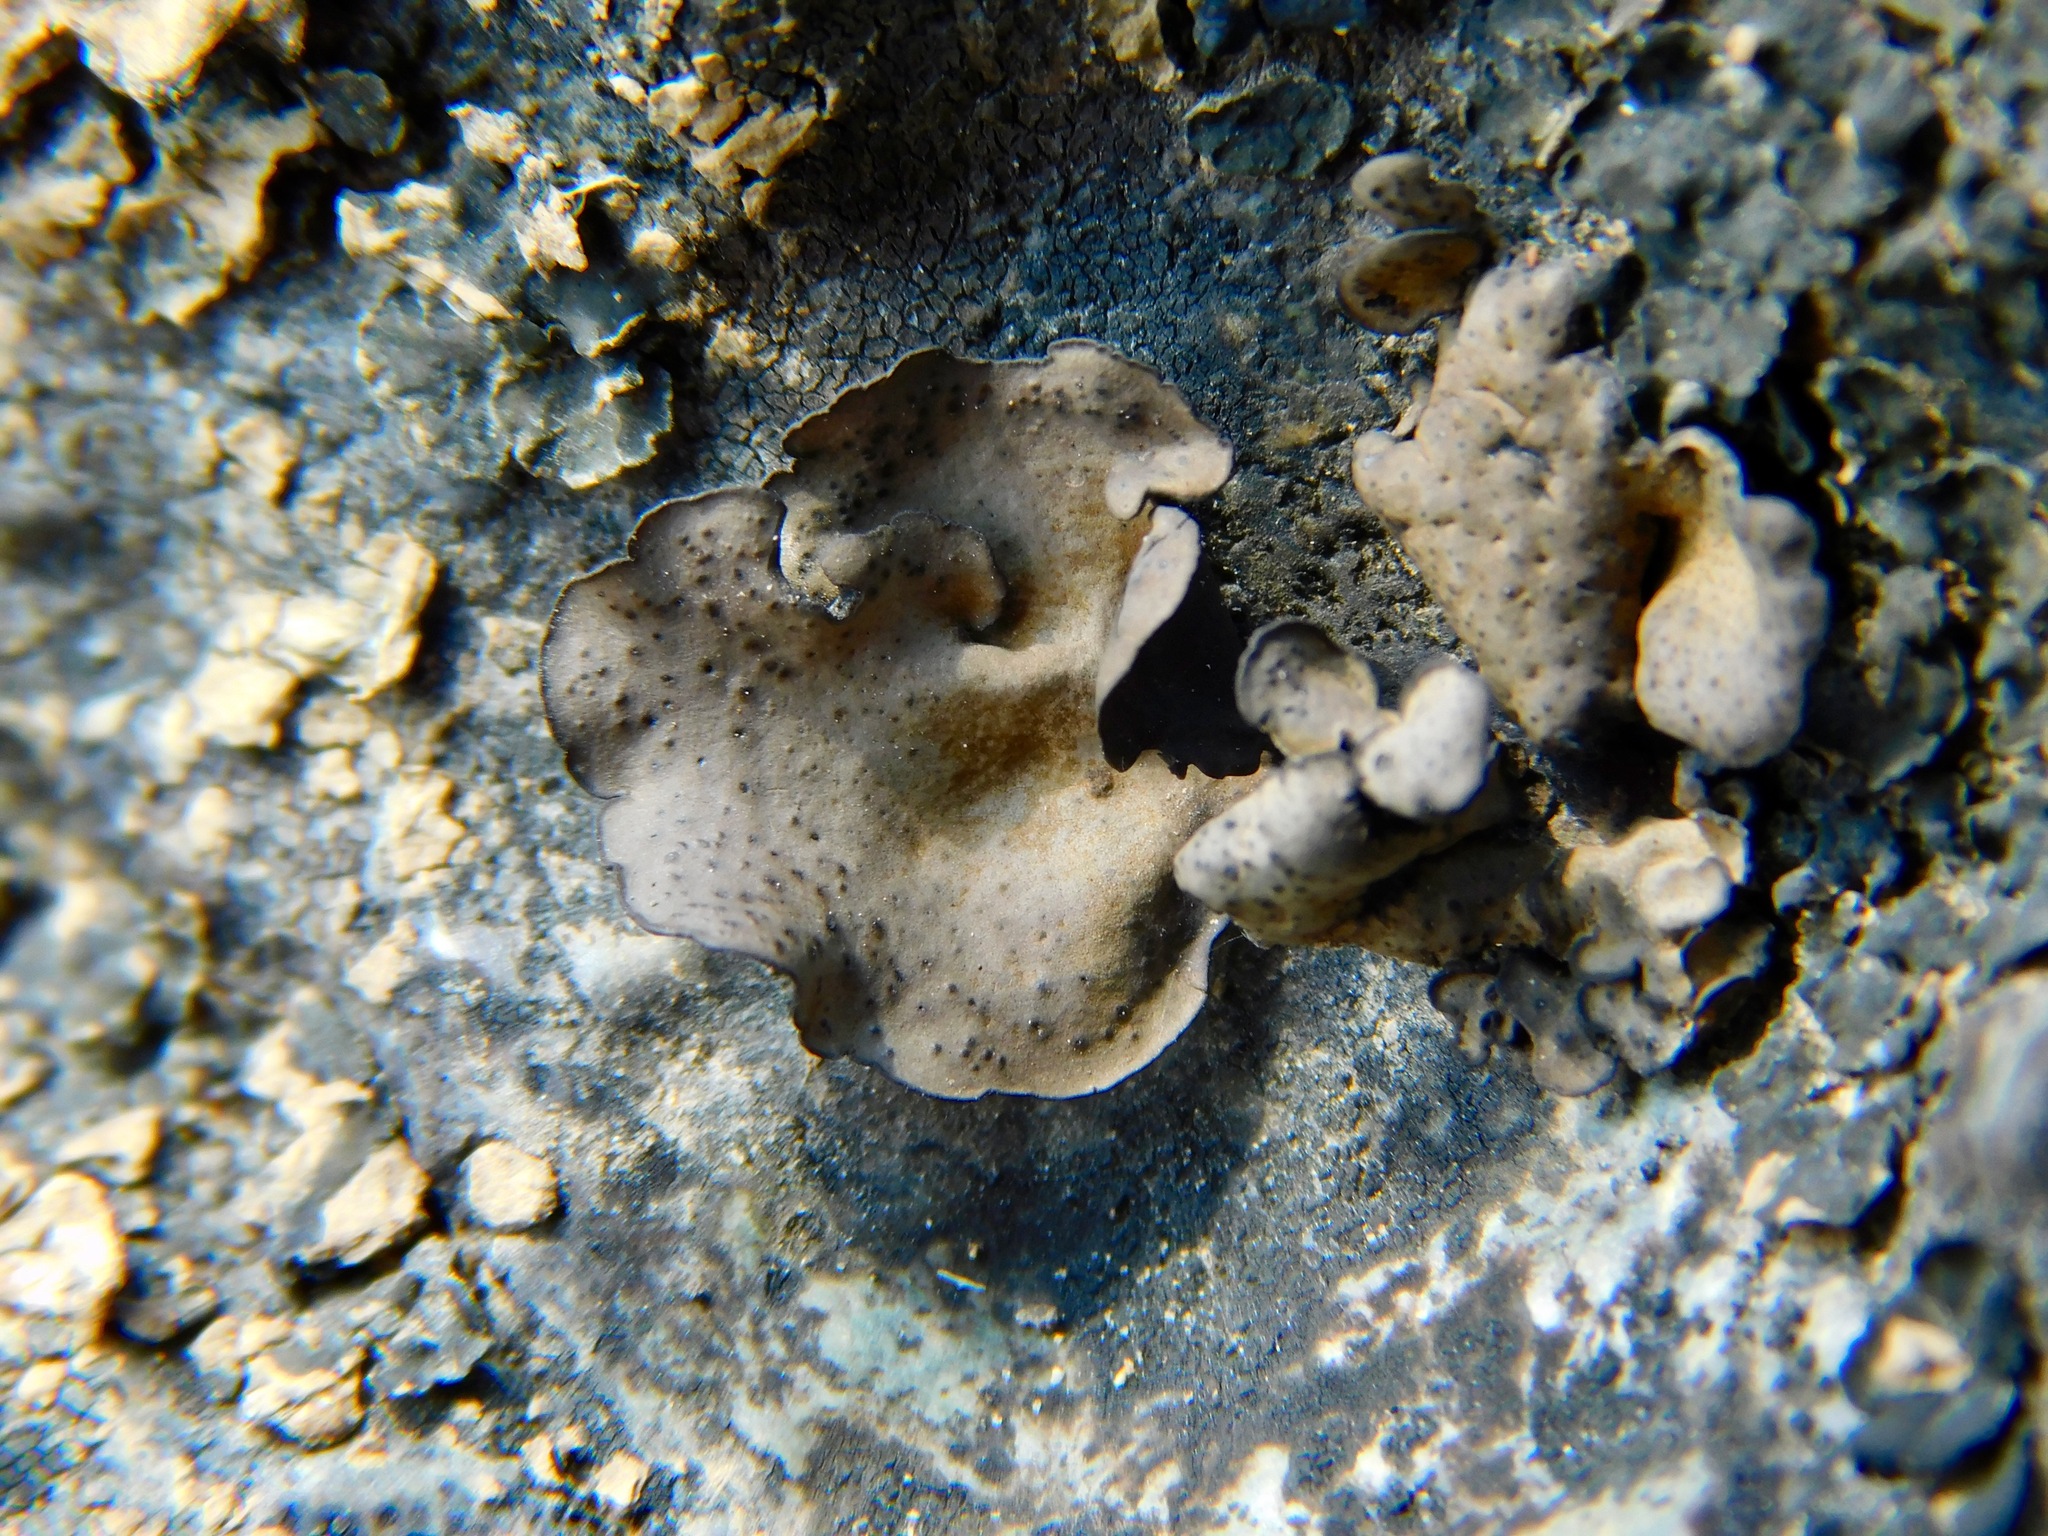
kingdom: Fungi
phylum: Ascomycota
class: Eurotiomycetes
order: Verrucariales
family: Verrucariaceae
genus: Dermatocarpon
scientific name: Dermatocarpon arenosaxi
